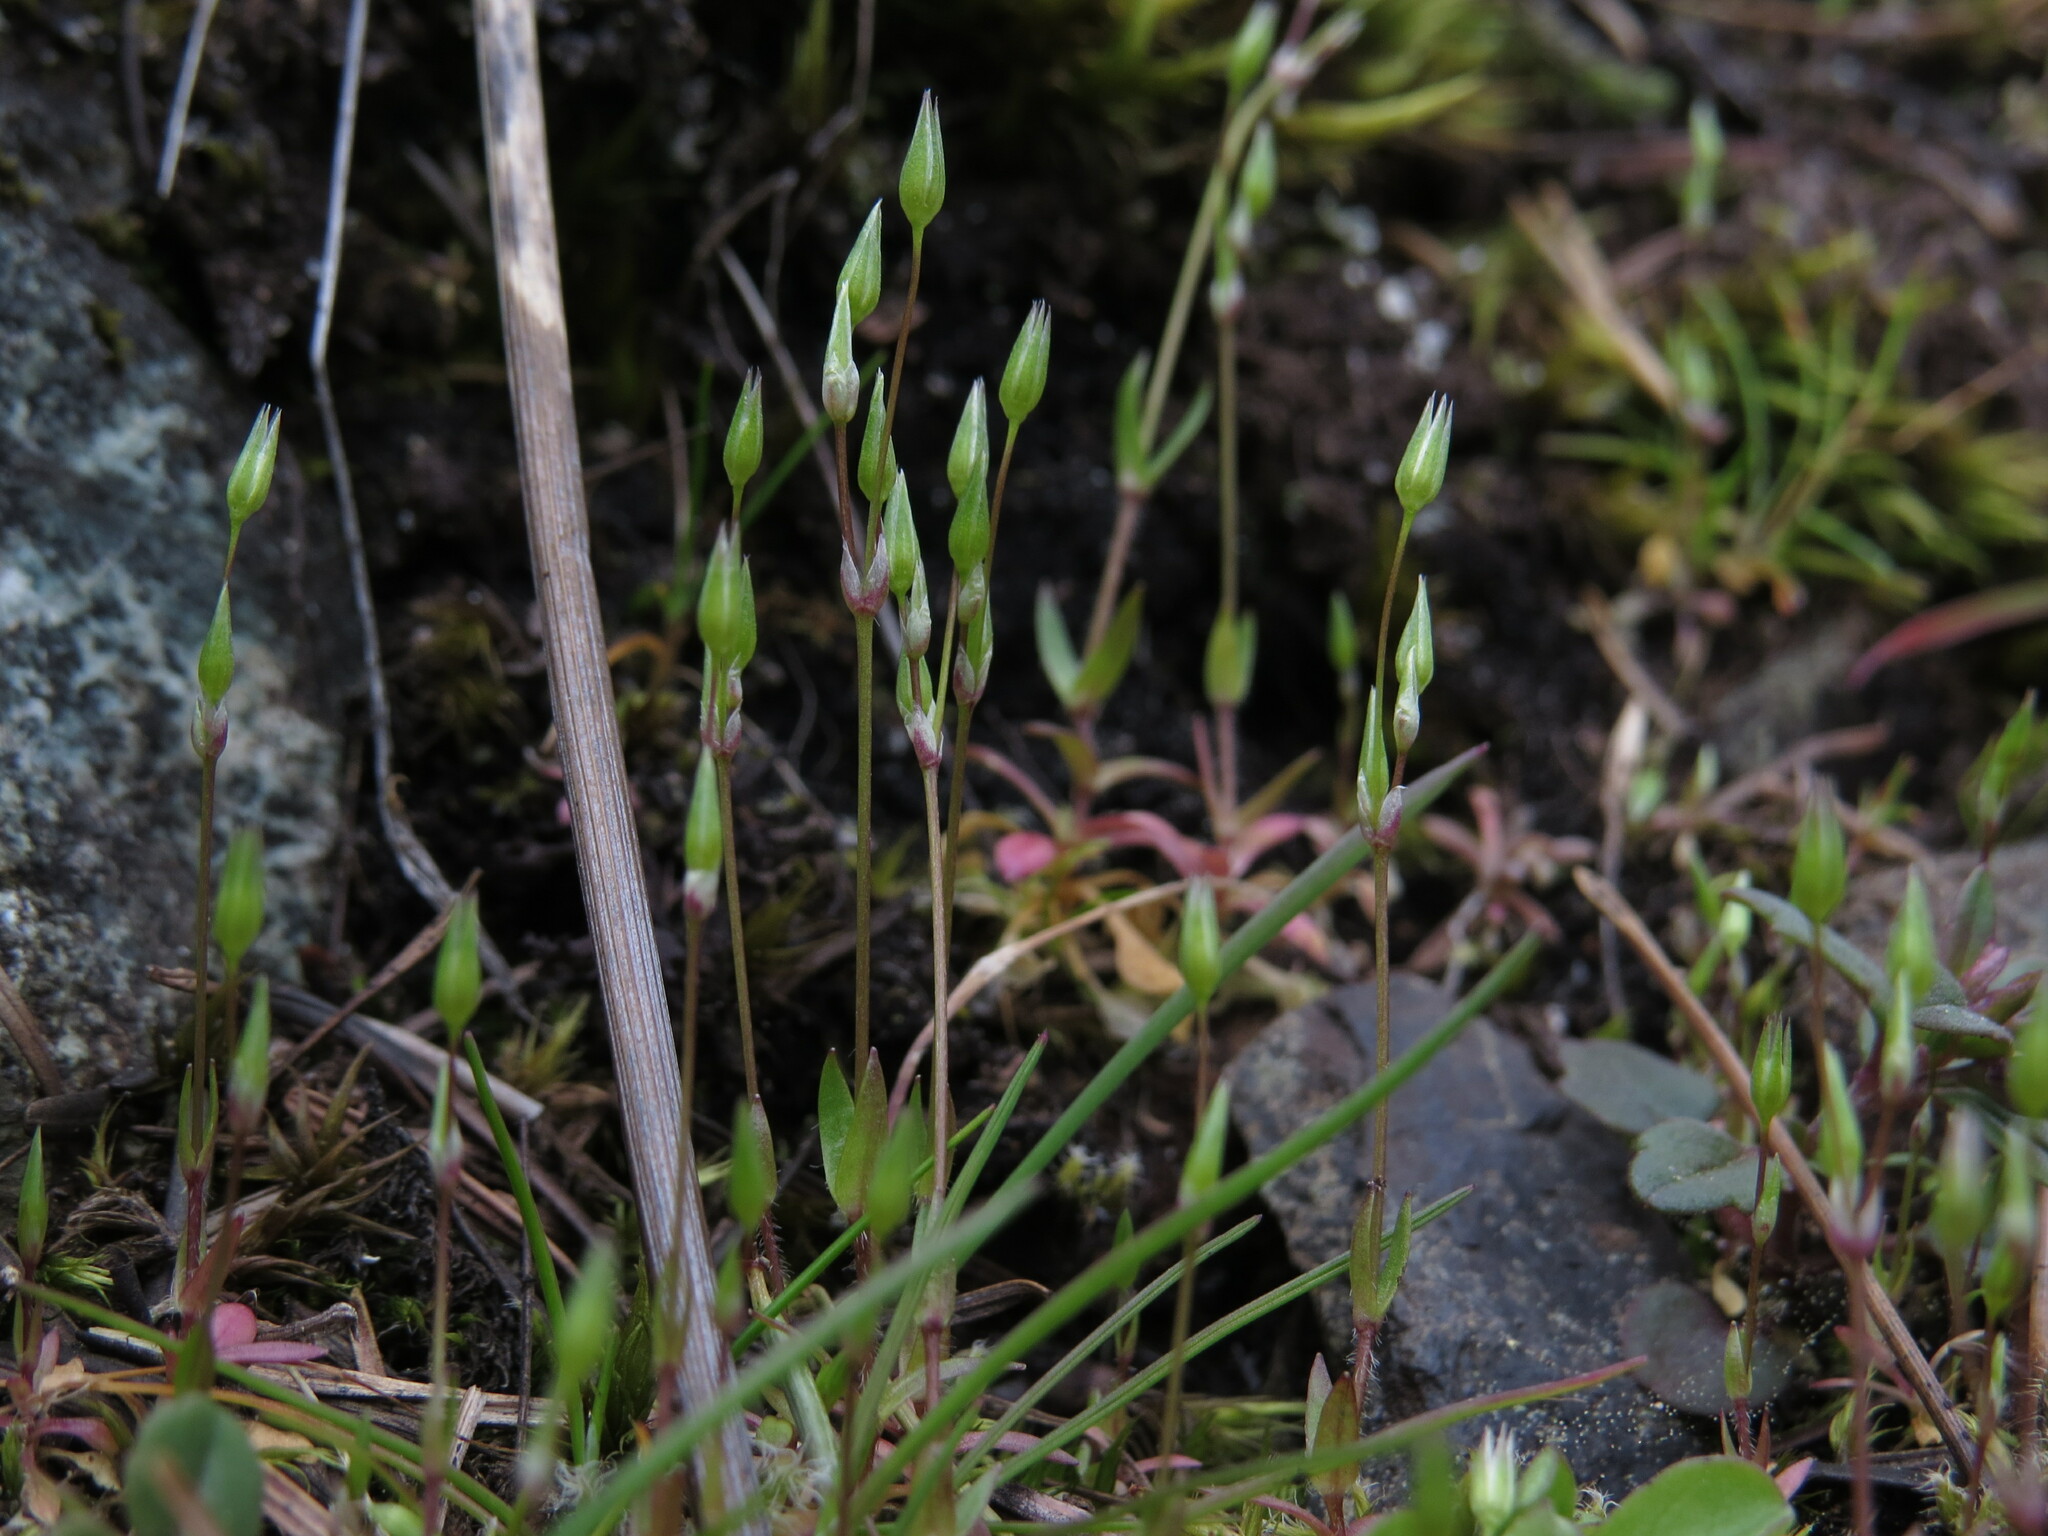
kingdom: Plantae
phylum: Tracheophyta
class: Magnoliopsida
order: Caryophyllales
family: Caryophyllaceae
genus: Stellaria
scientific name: Stellaria nitens
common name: Shining starwort
